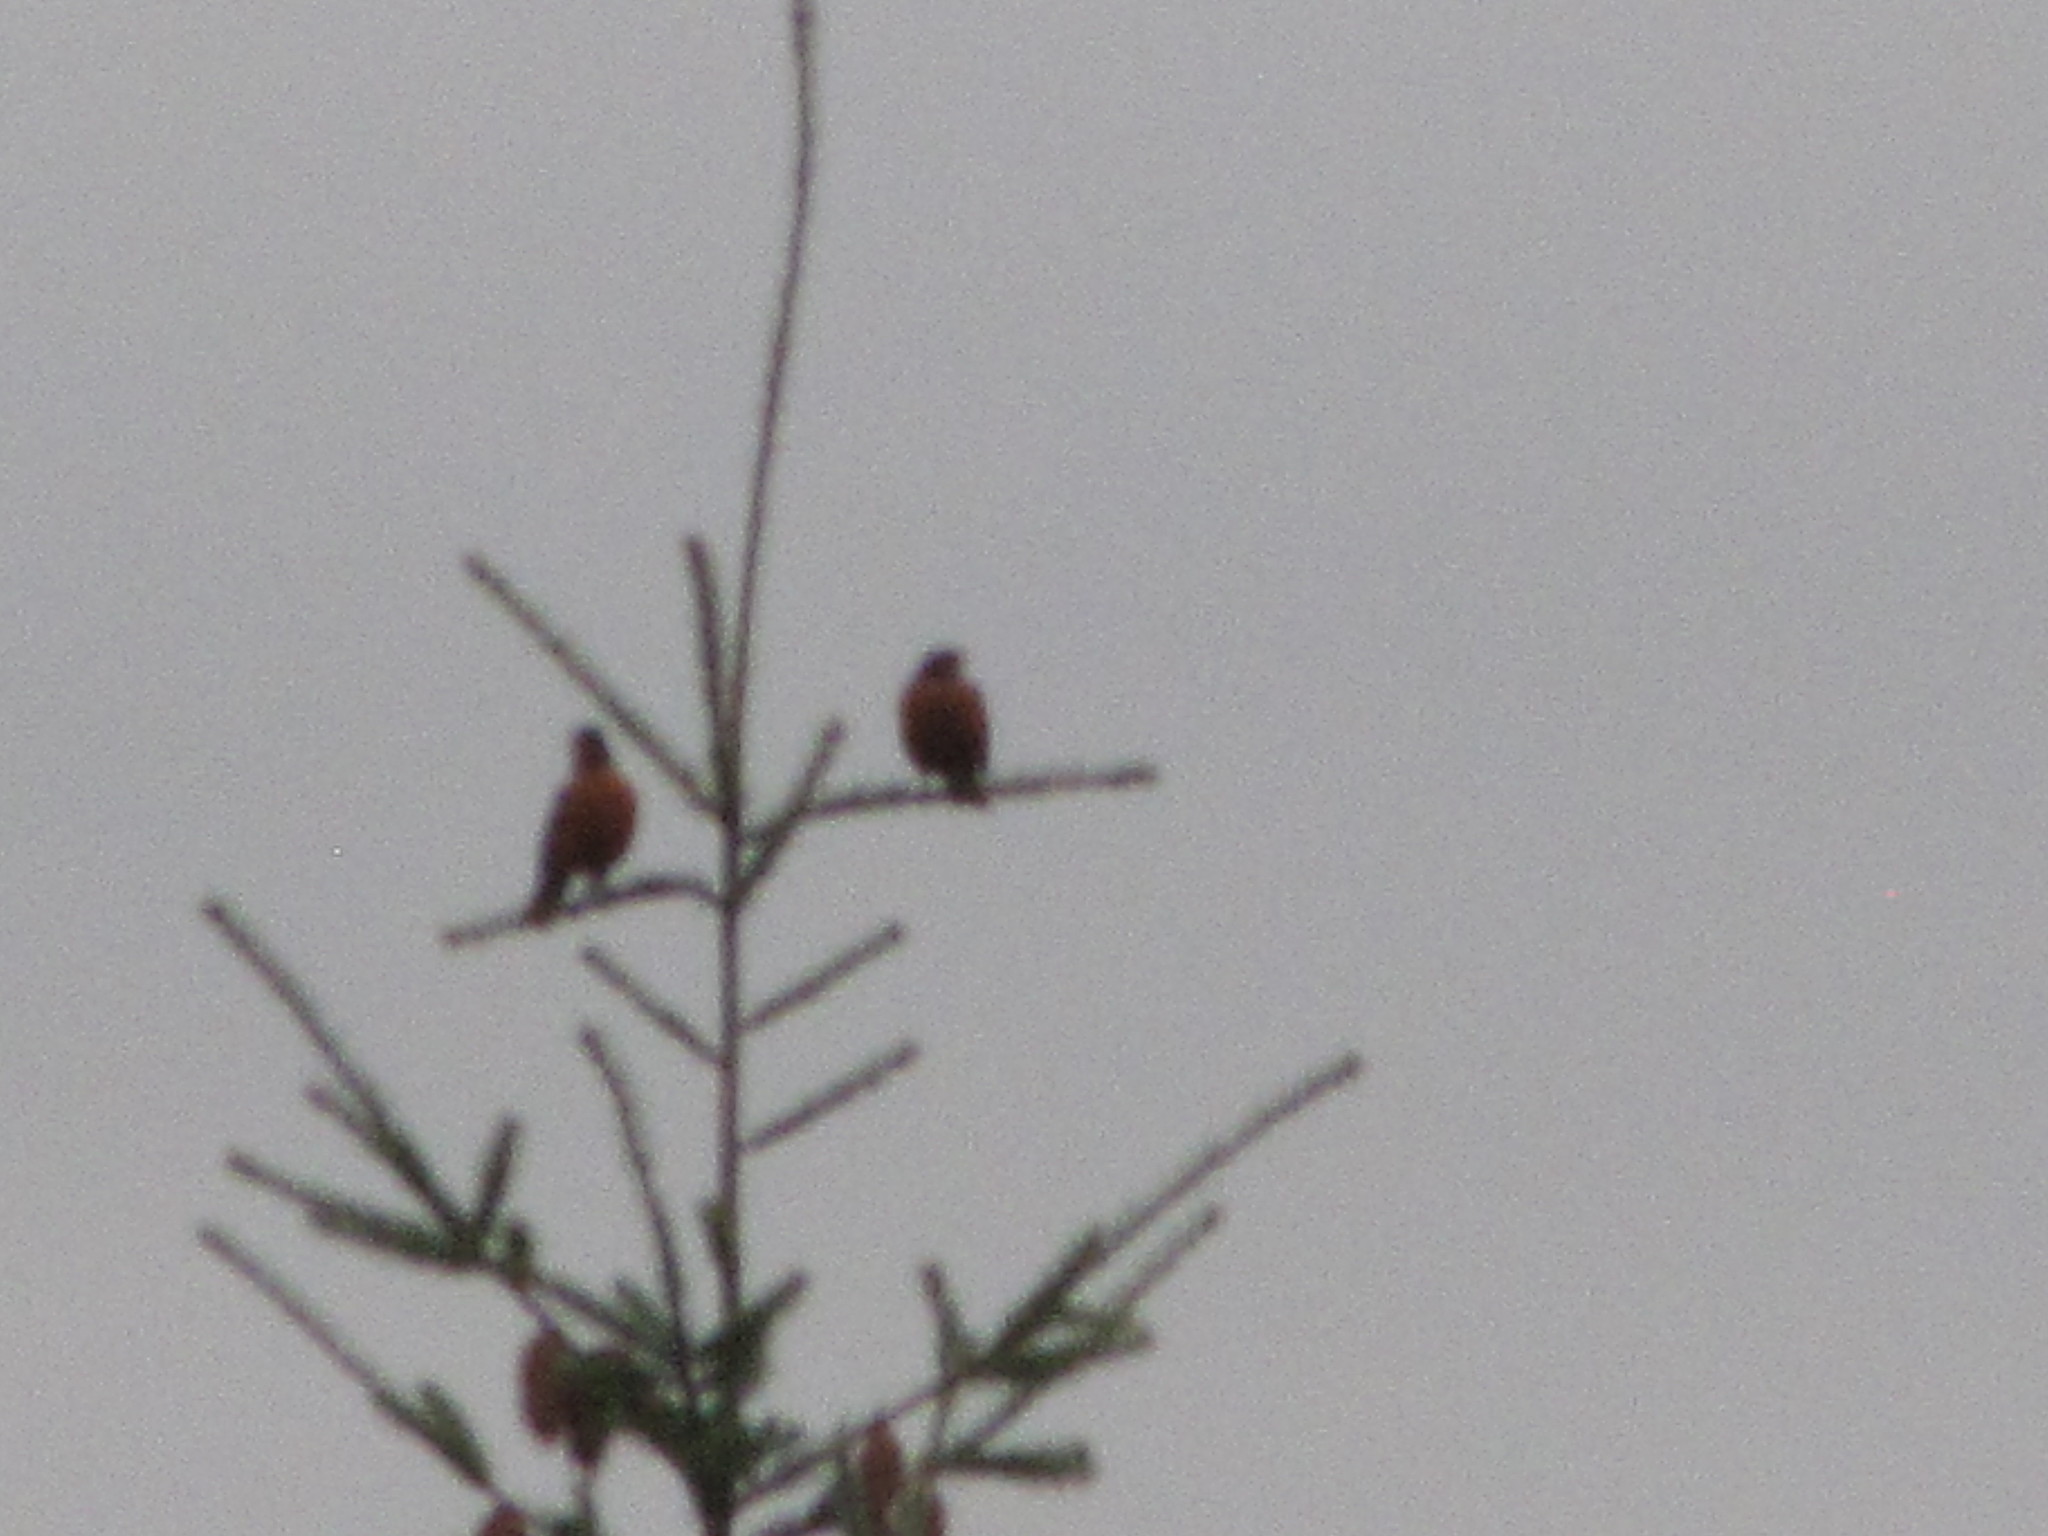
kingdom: Animalia
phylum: Chordata
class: Aves
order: Passeriformes
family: Turdidae
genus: Turdus
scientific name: Turdus migratorius
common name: American robin
